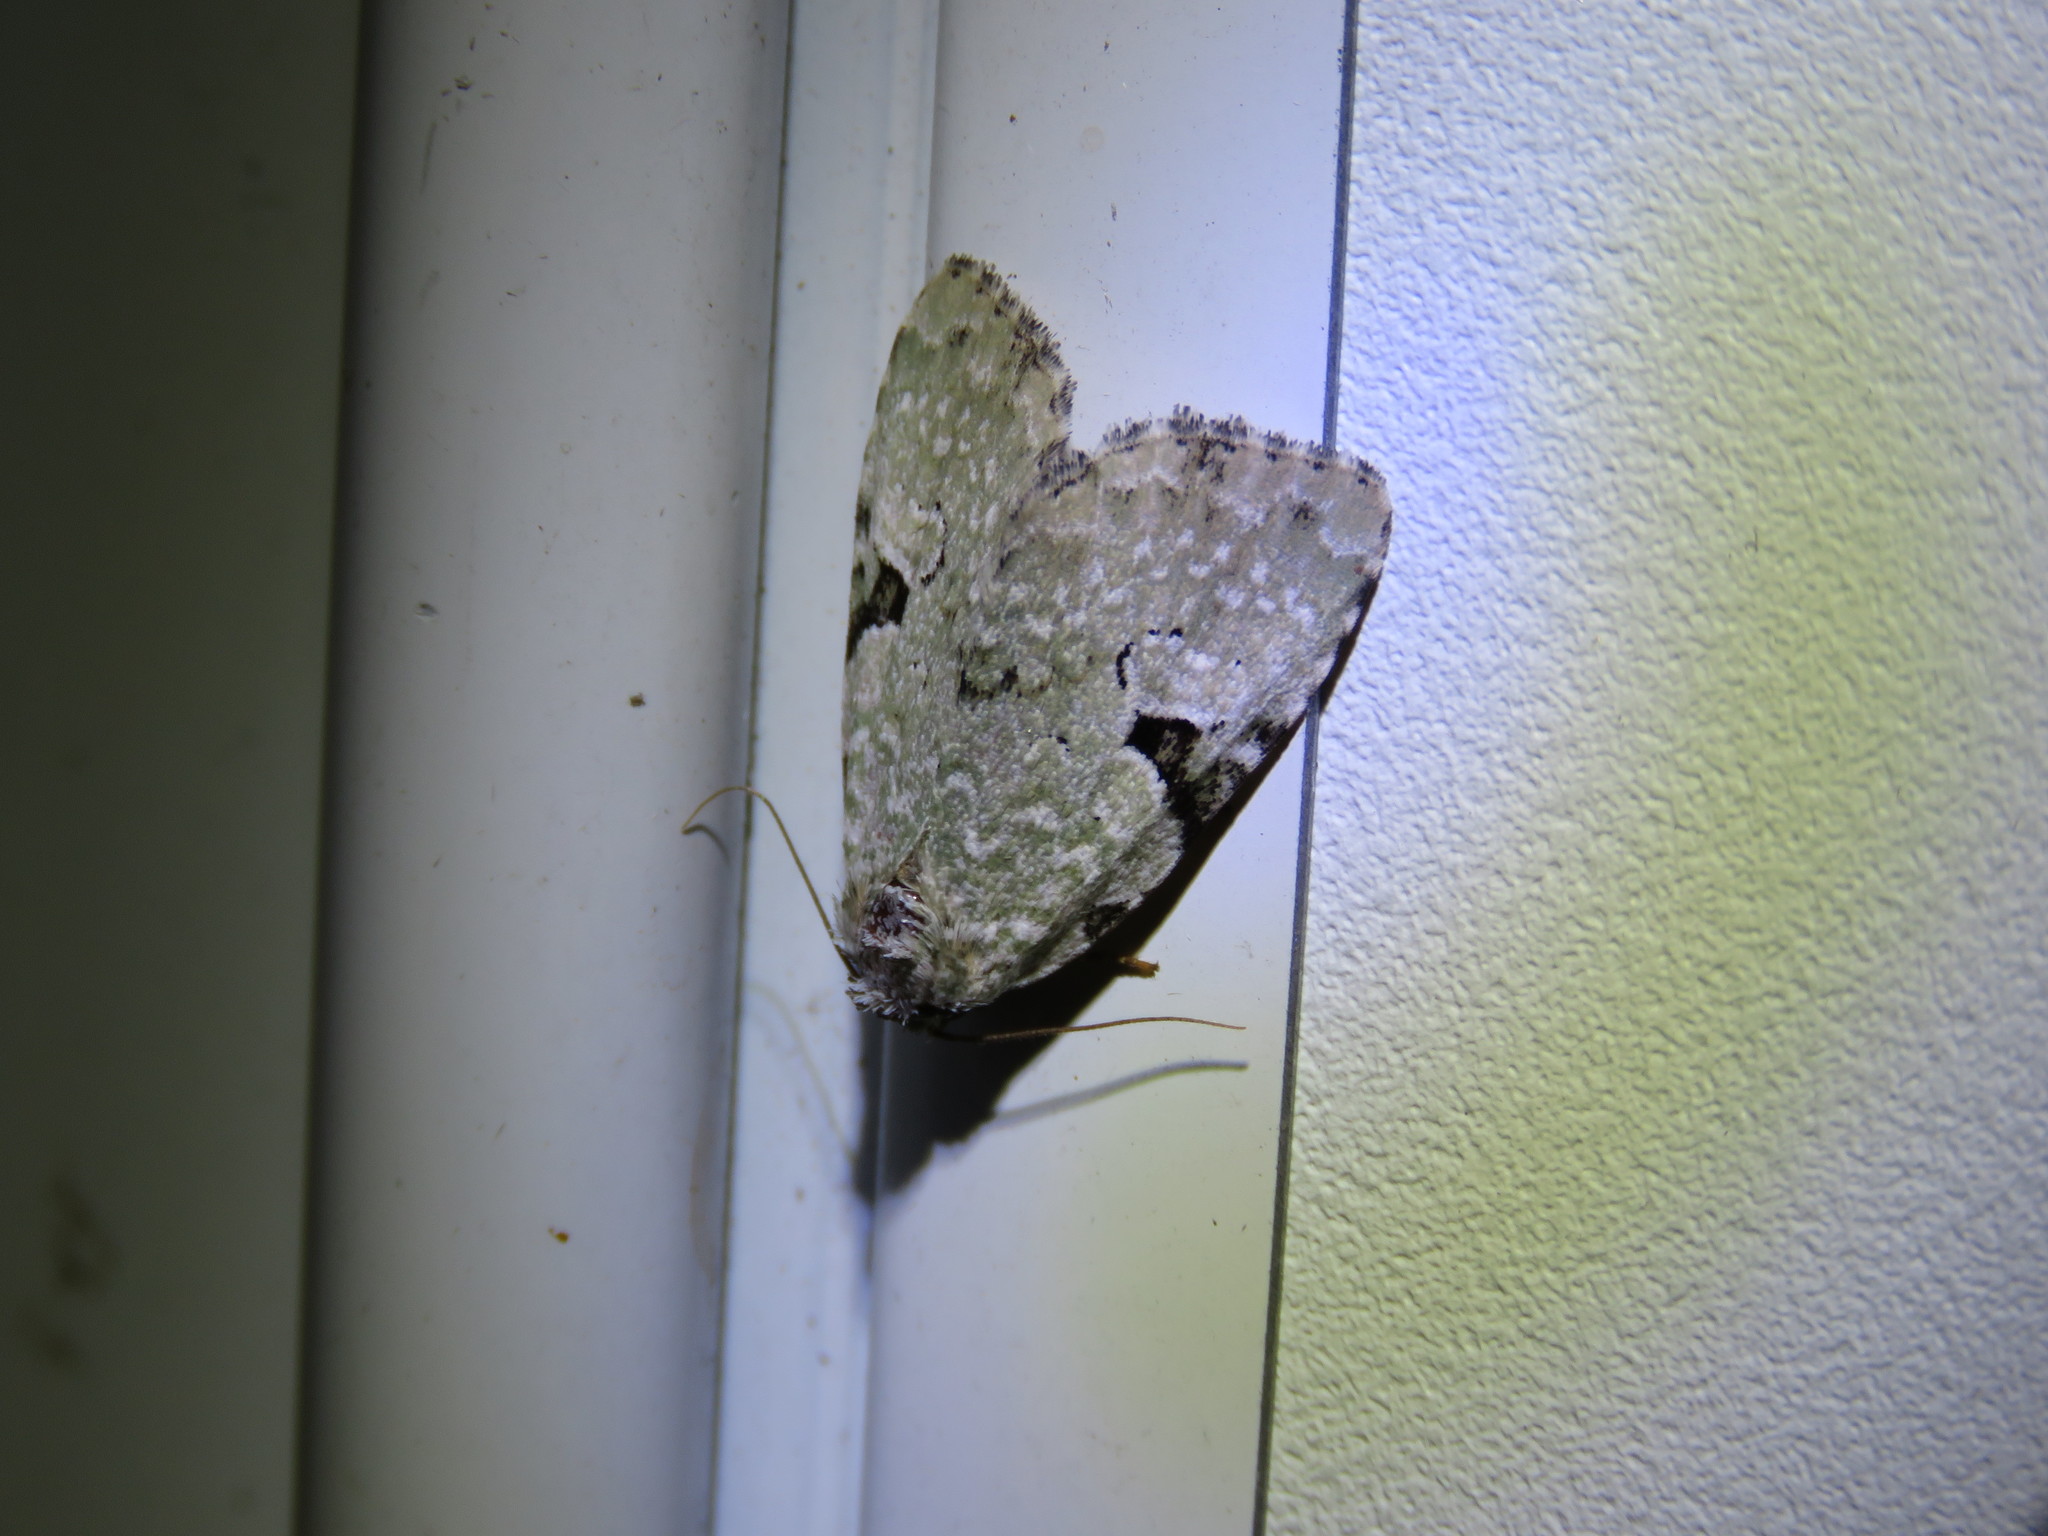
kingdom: Animalia
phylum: Arthropoda
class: Insecta
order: Lepidoptera
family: Noctuidae
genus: Leuconycta
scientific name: Leuconycta diphteroides
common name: Green leuconycta moth
